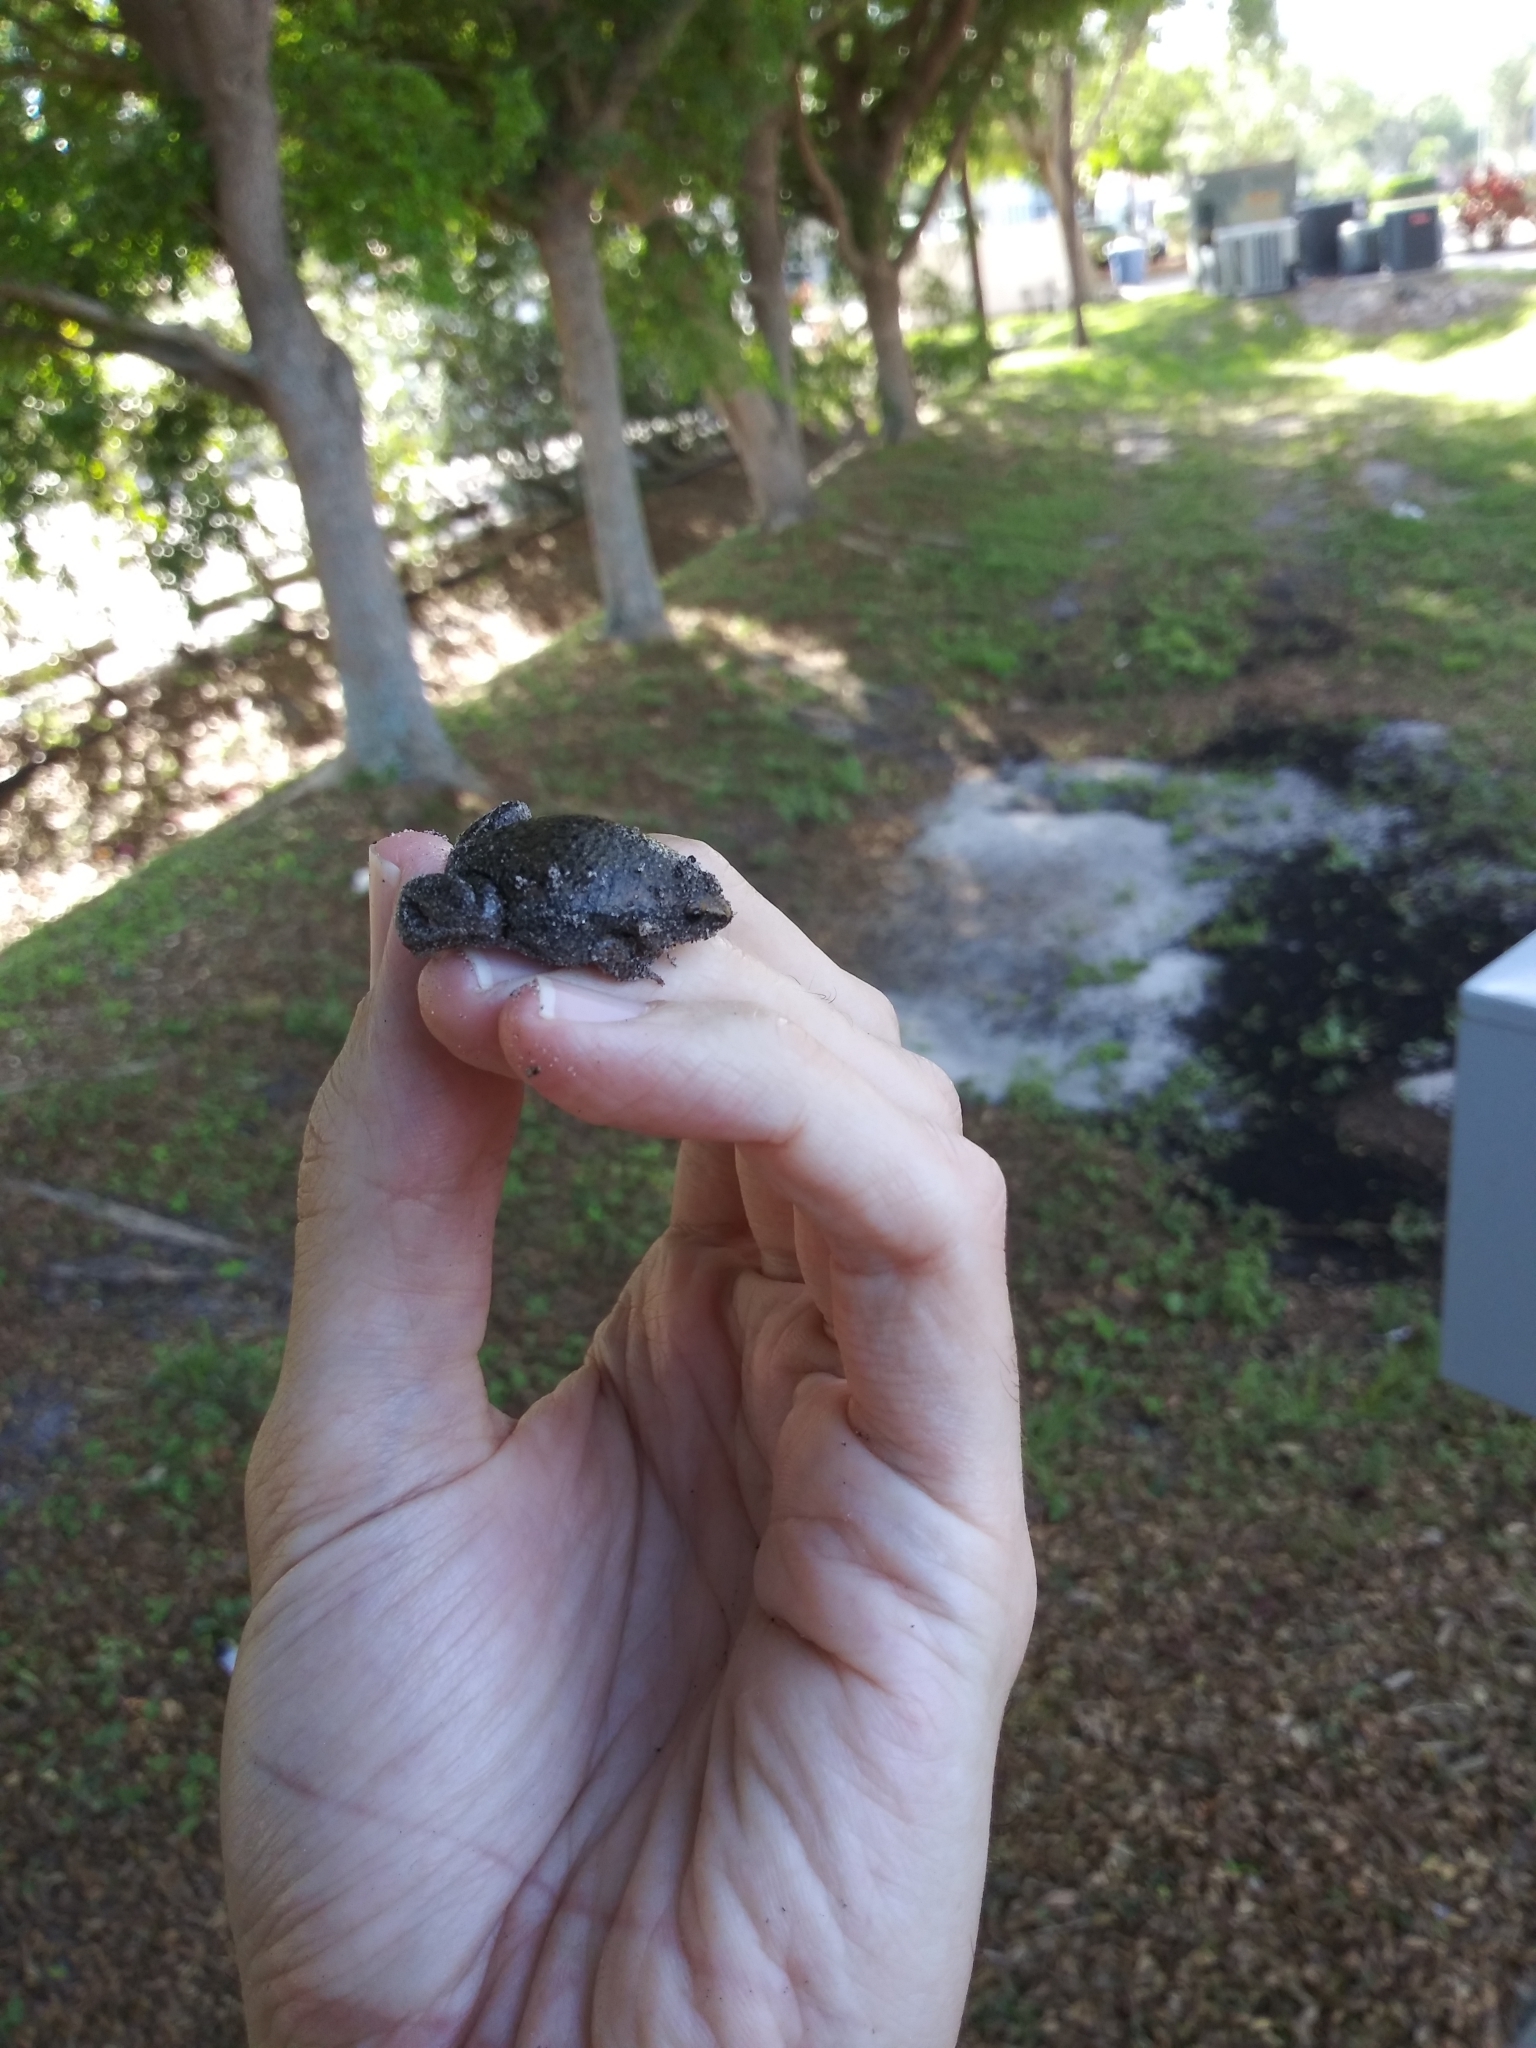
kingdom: Animalia
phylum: Chordata
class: Amphibia
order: Anura
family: Microhylidae
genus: Gastrophryne
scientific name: Gastrophryne carolinensis
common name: Eastern narrowmouth toad
